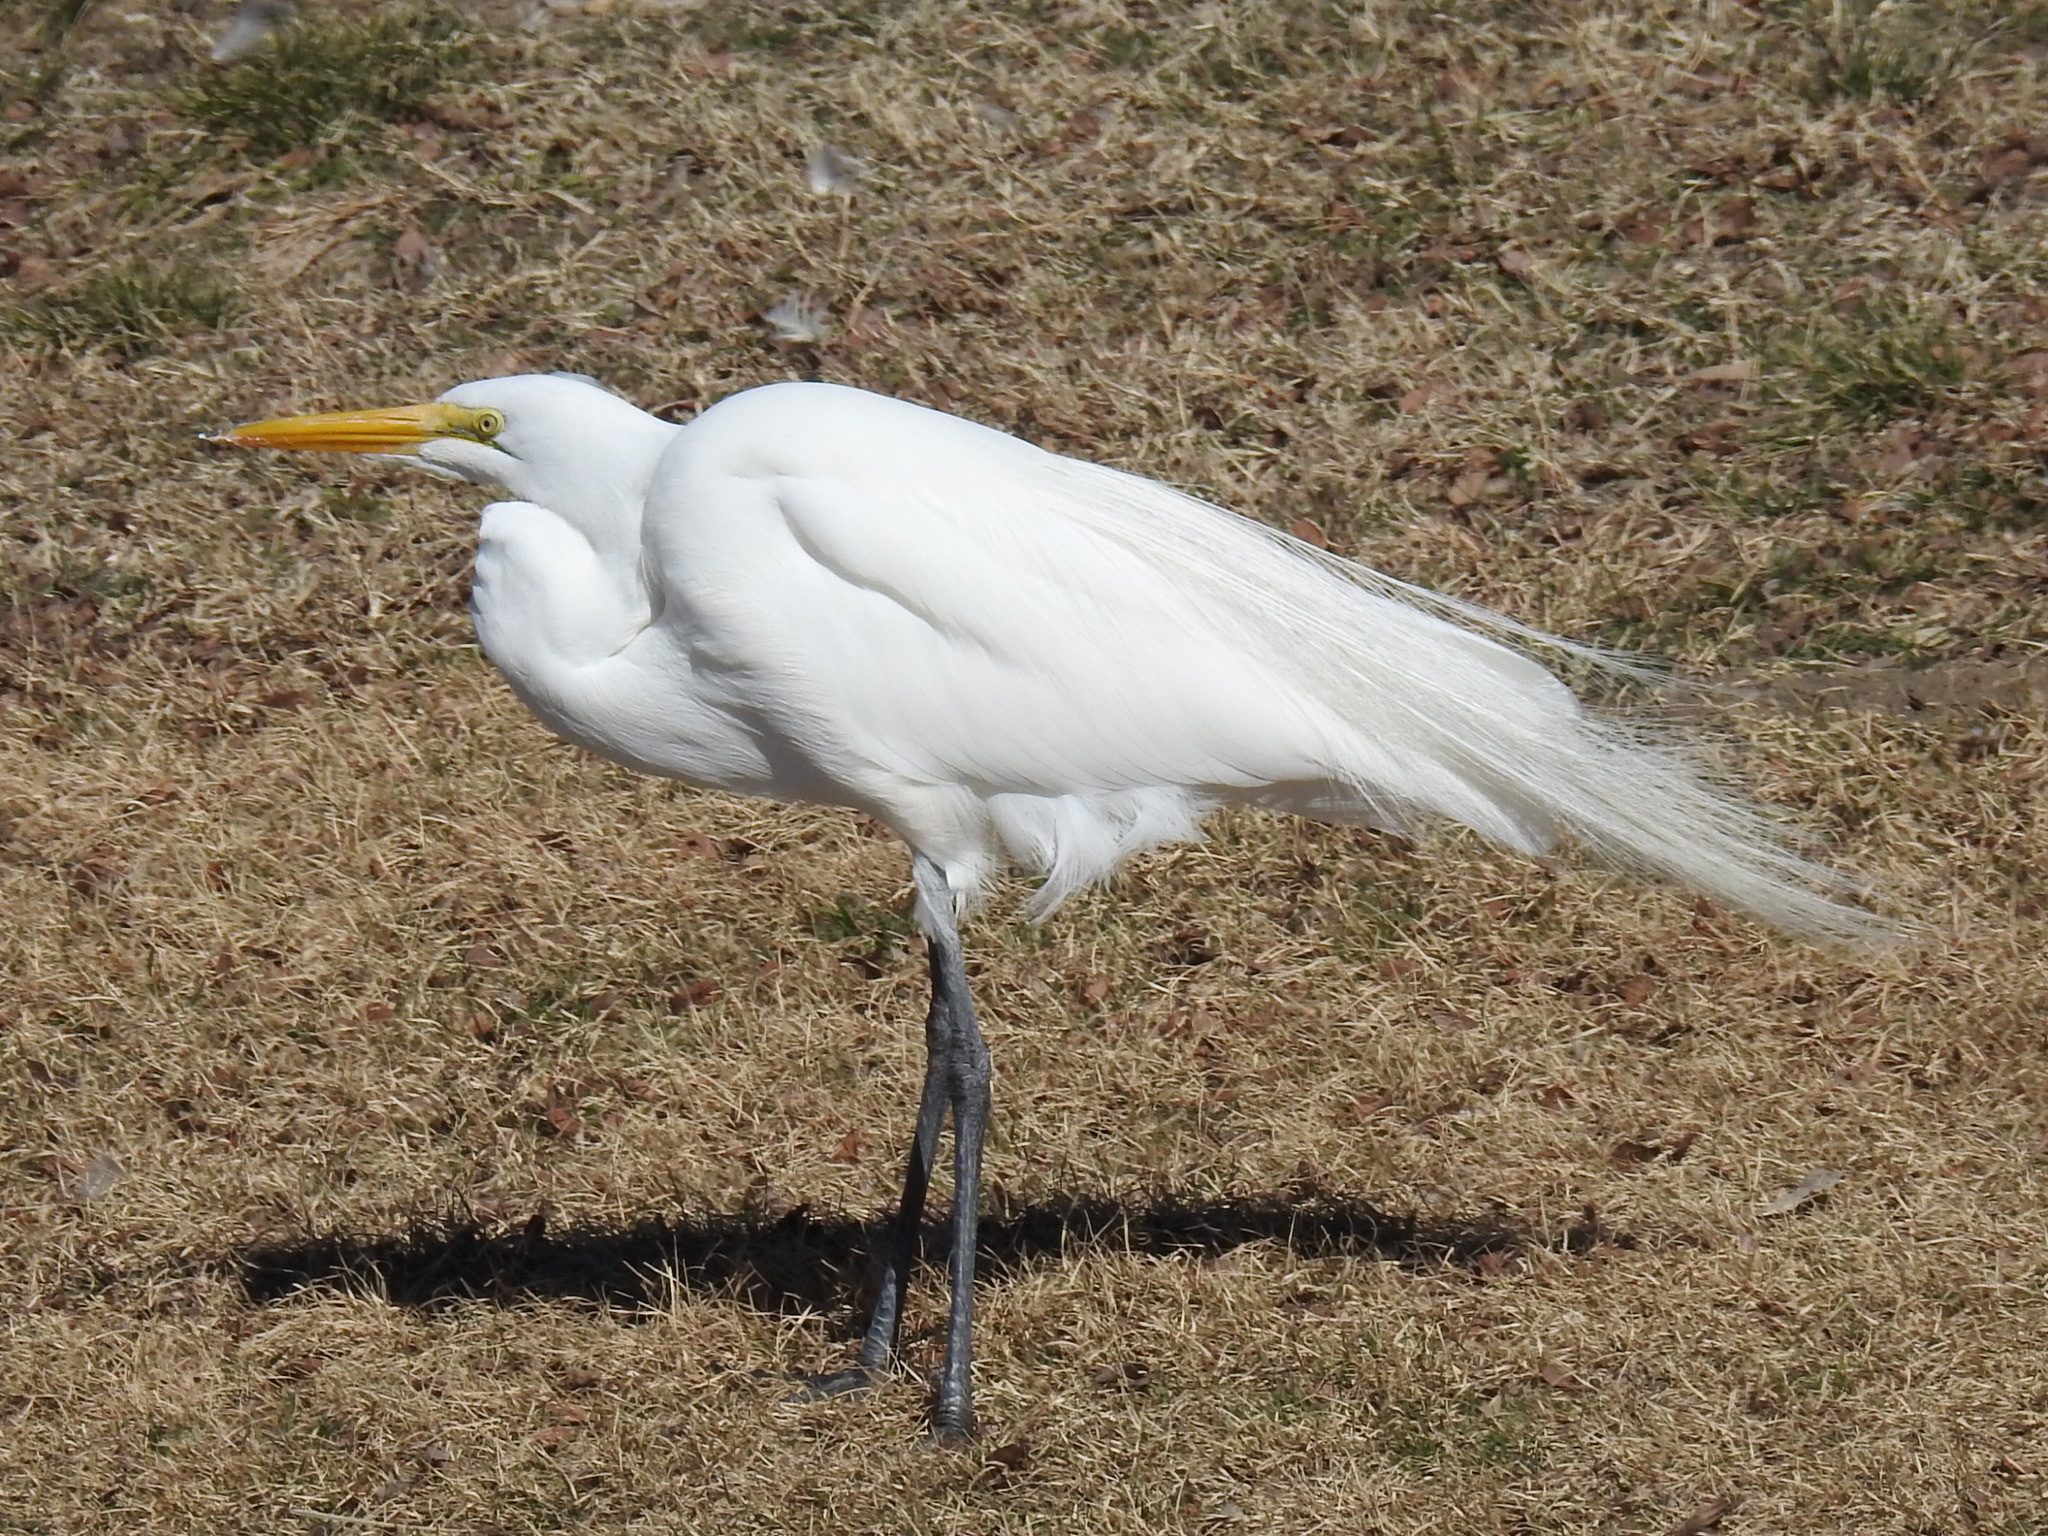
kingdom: Animalia
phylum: Chordata
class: Aves
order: Pelecaniformes
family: Ardeidae
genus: Ardea
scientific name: Ardea alba
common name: Great egret
